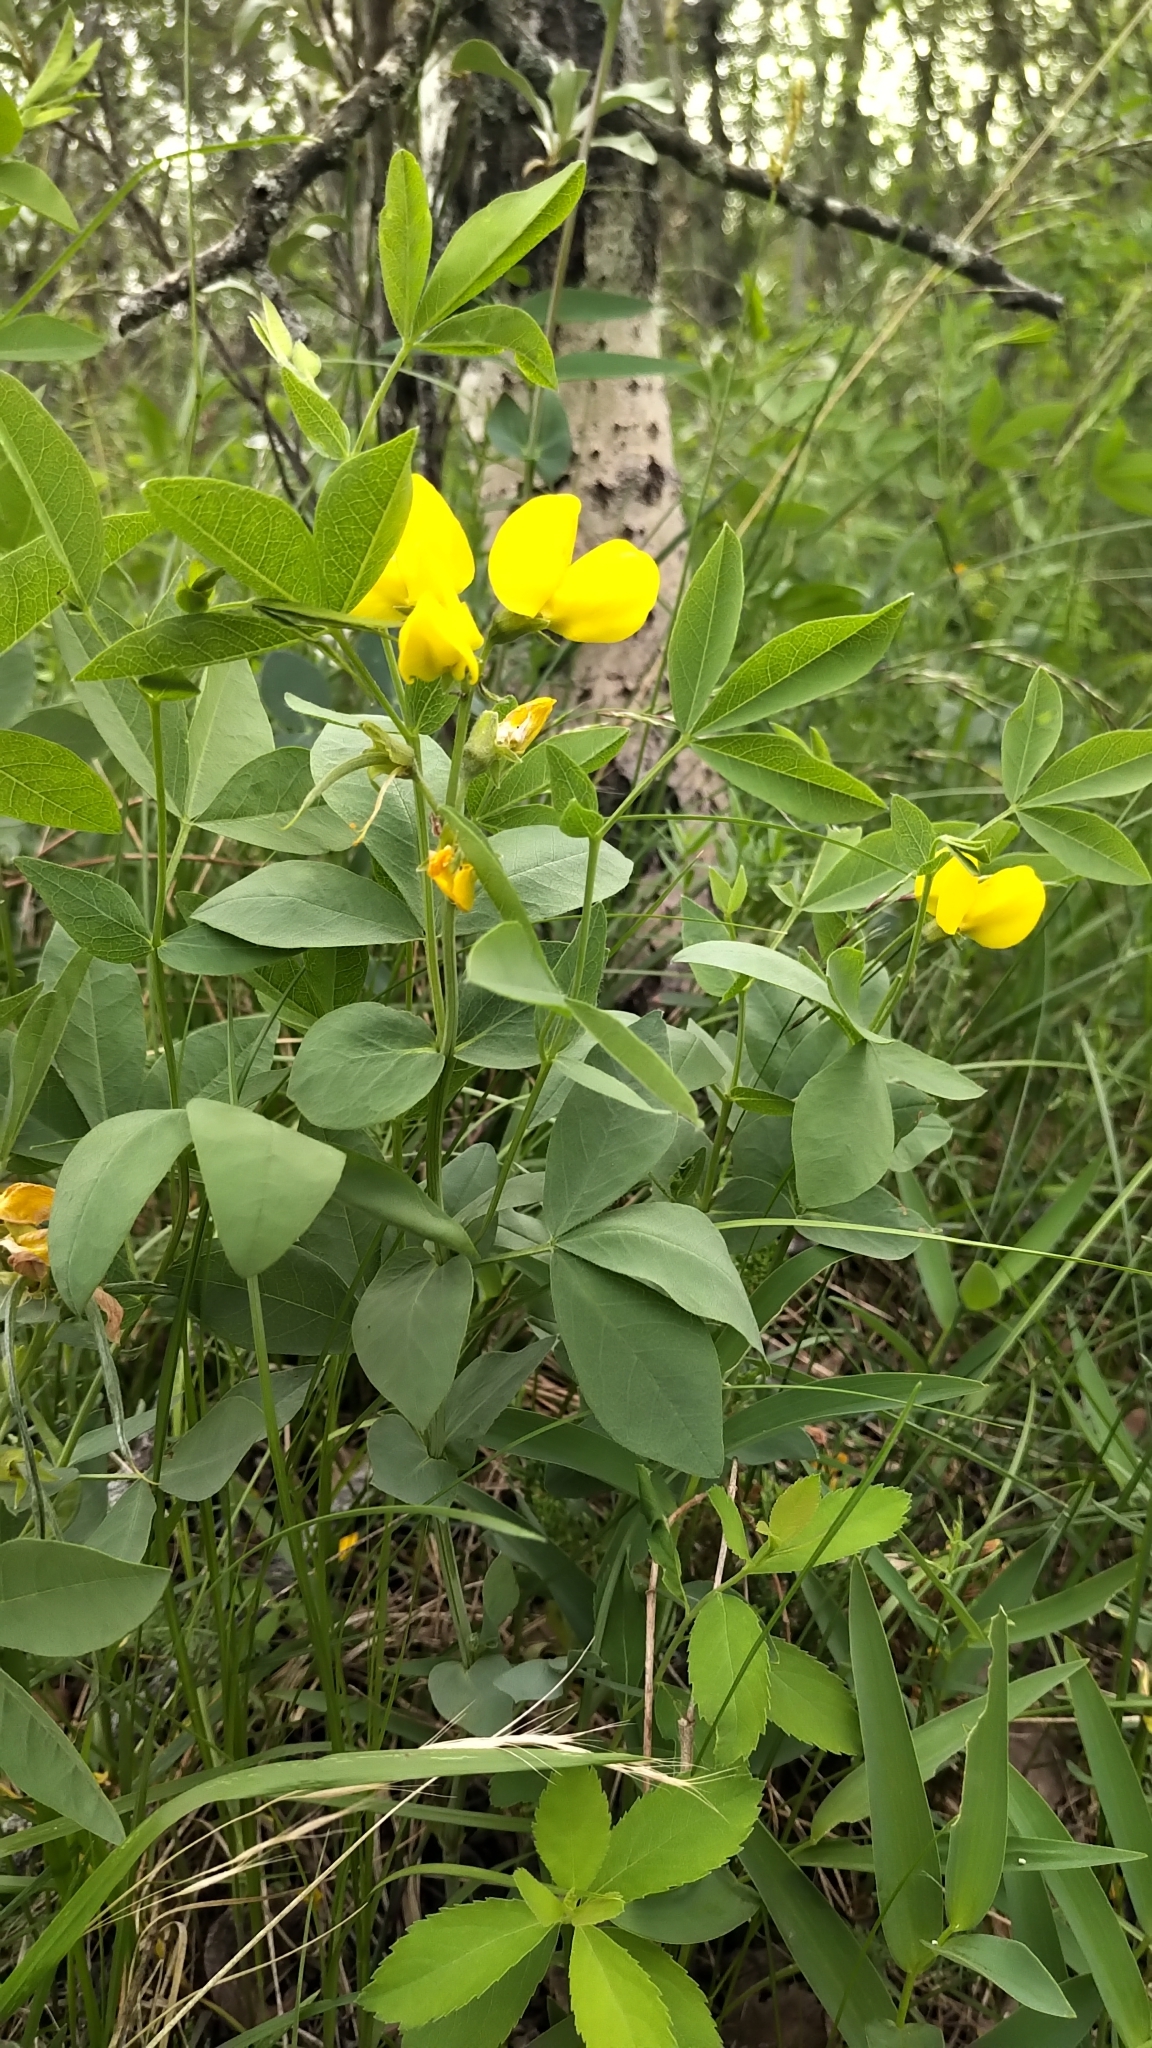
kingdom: Plantae
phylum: Tracheophyta
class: Magnoliopsida
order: Fabales
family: Fabaceae
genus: Thermopsis
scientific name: Thermopsis rhombifolia
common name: Circle-pod-pea
